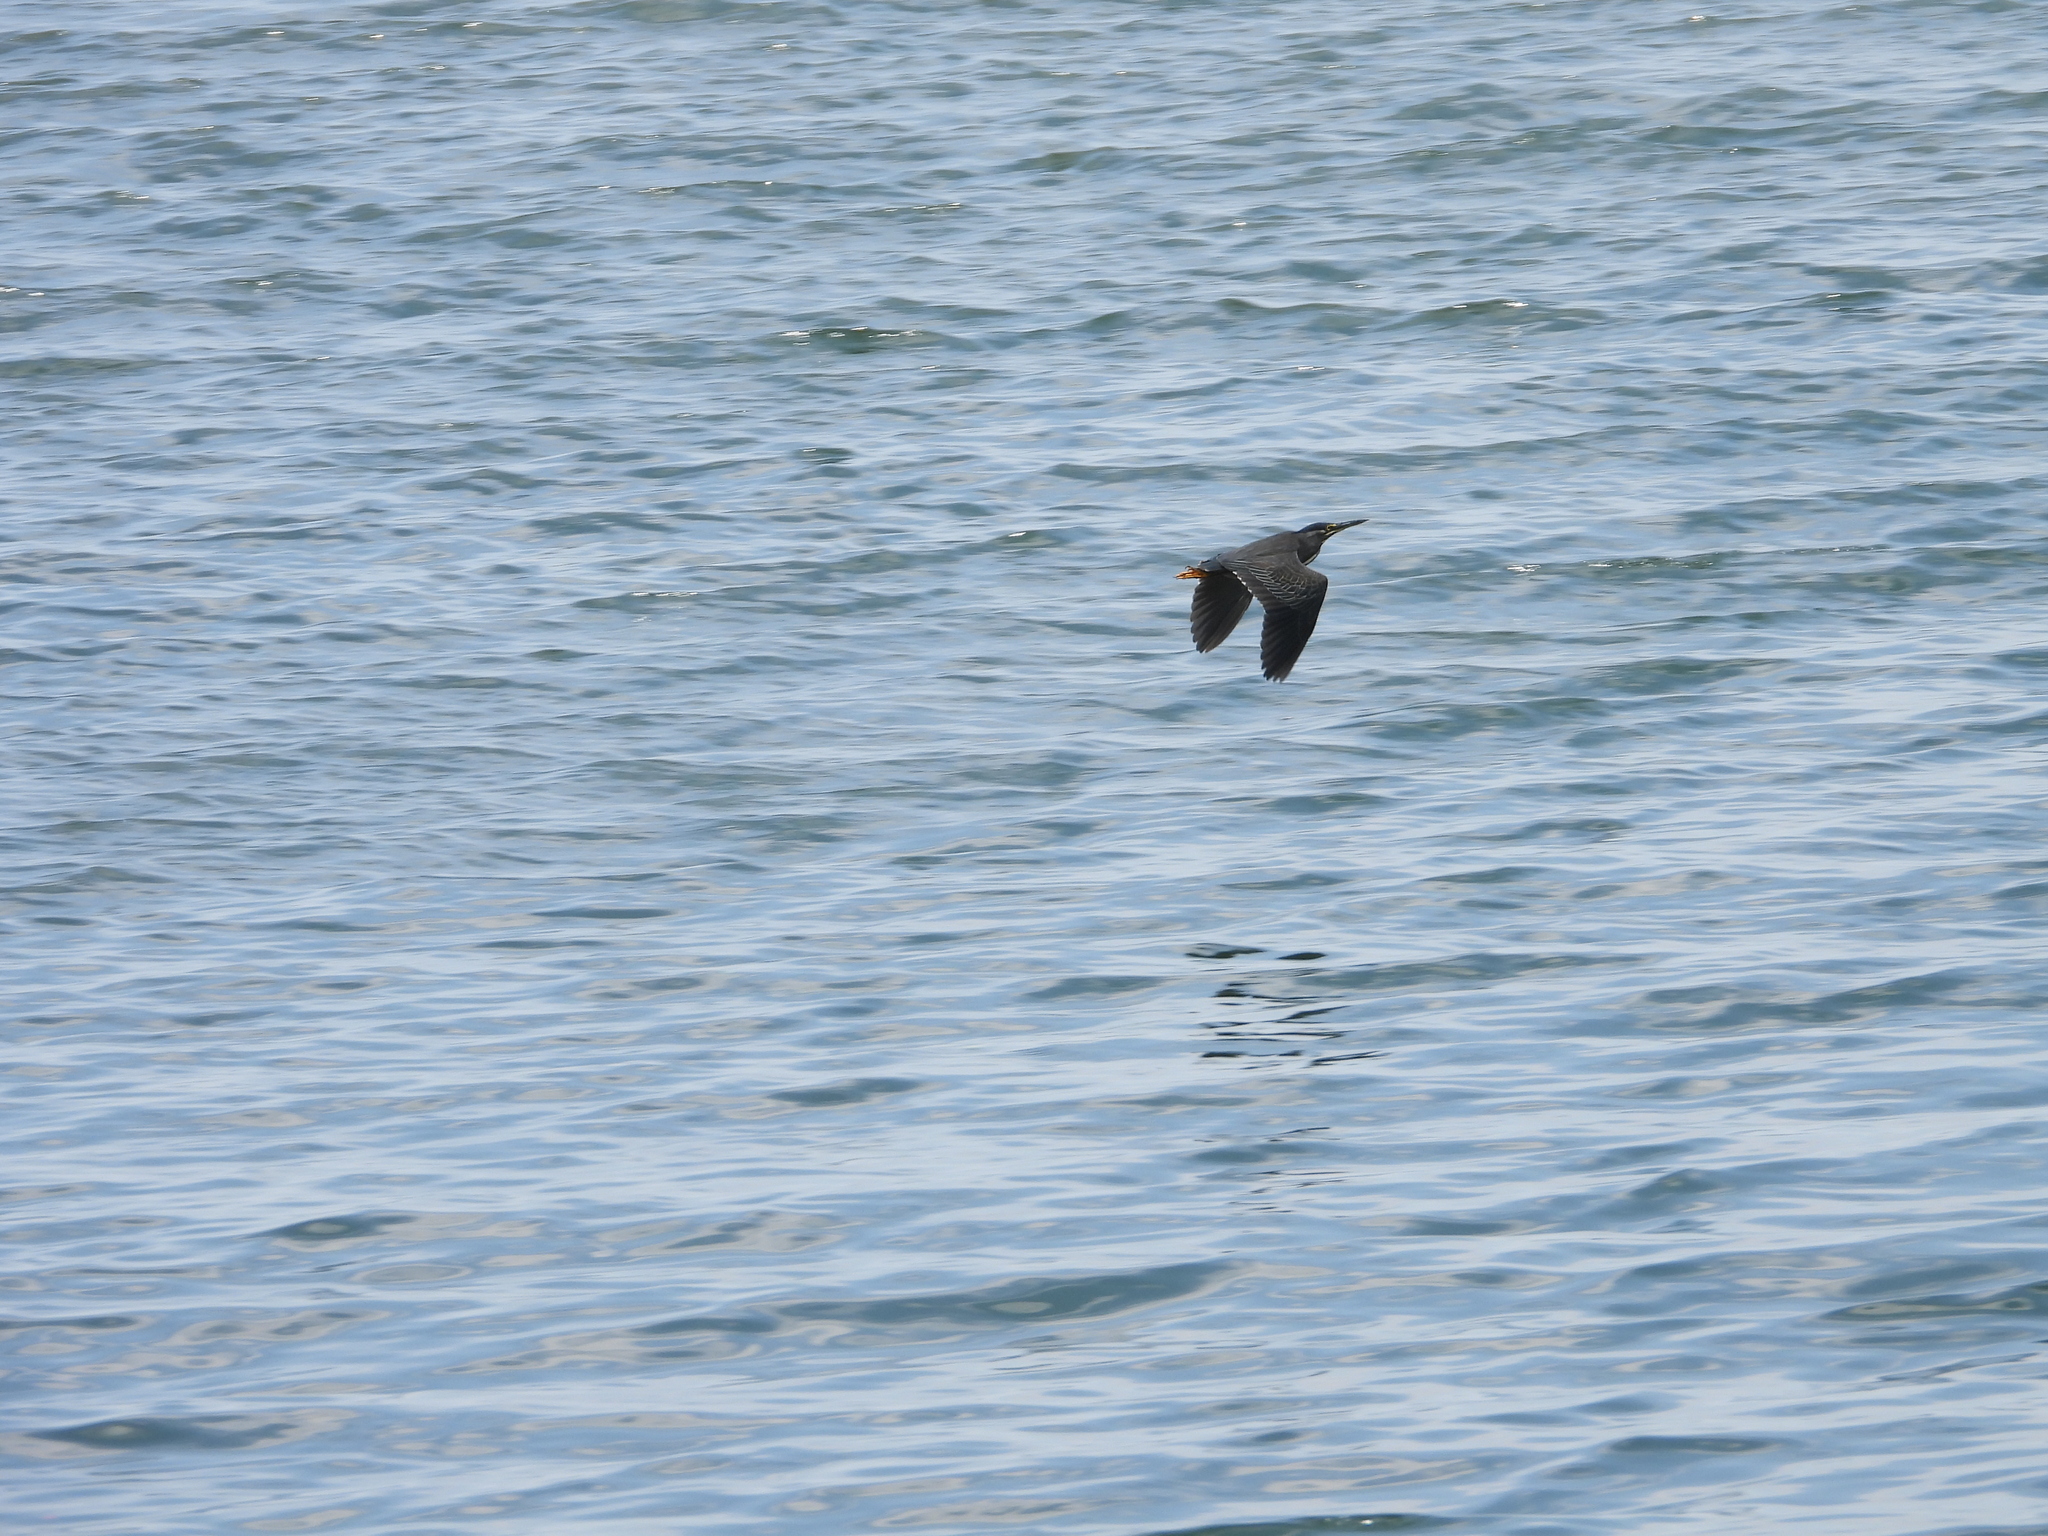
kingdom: Animalia
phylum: Chordata
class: Aves
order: Pelecaniformes
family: Ardeidae
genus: Butorides
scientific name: Butorides striata
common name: Striated heron
